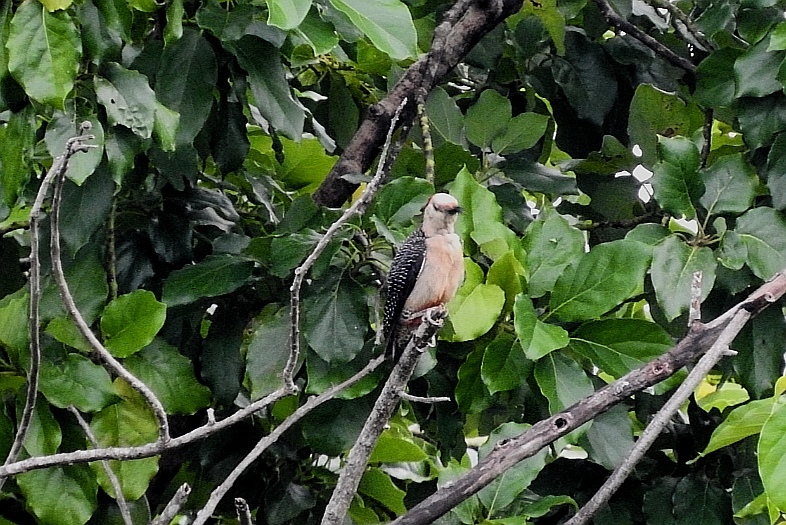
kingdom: Animalia
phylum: Chordata
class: Aves
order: Piciformes
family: Picidae
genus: Melanerpes
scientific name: Melanerpes aurifrons
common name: Golden-fronted woodpecker
